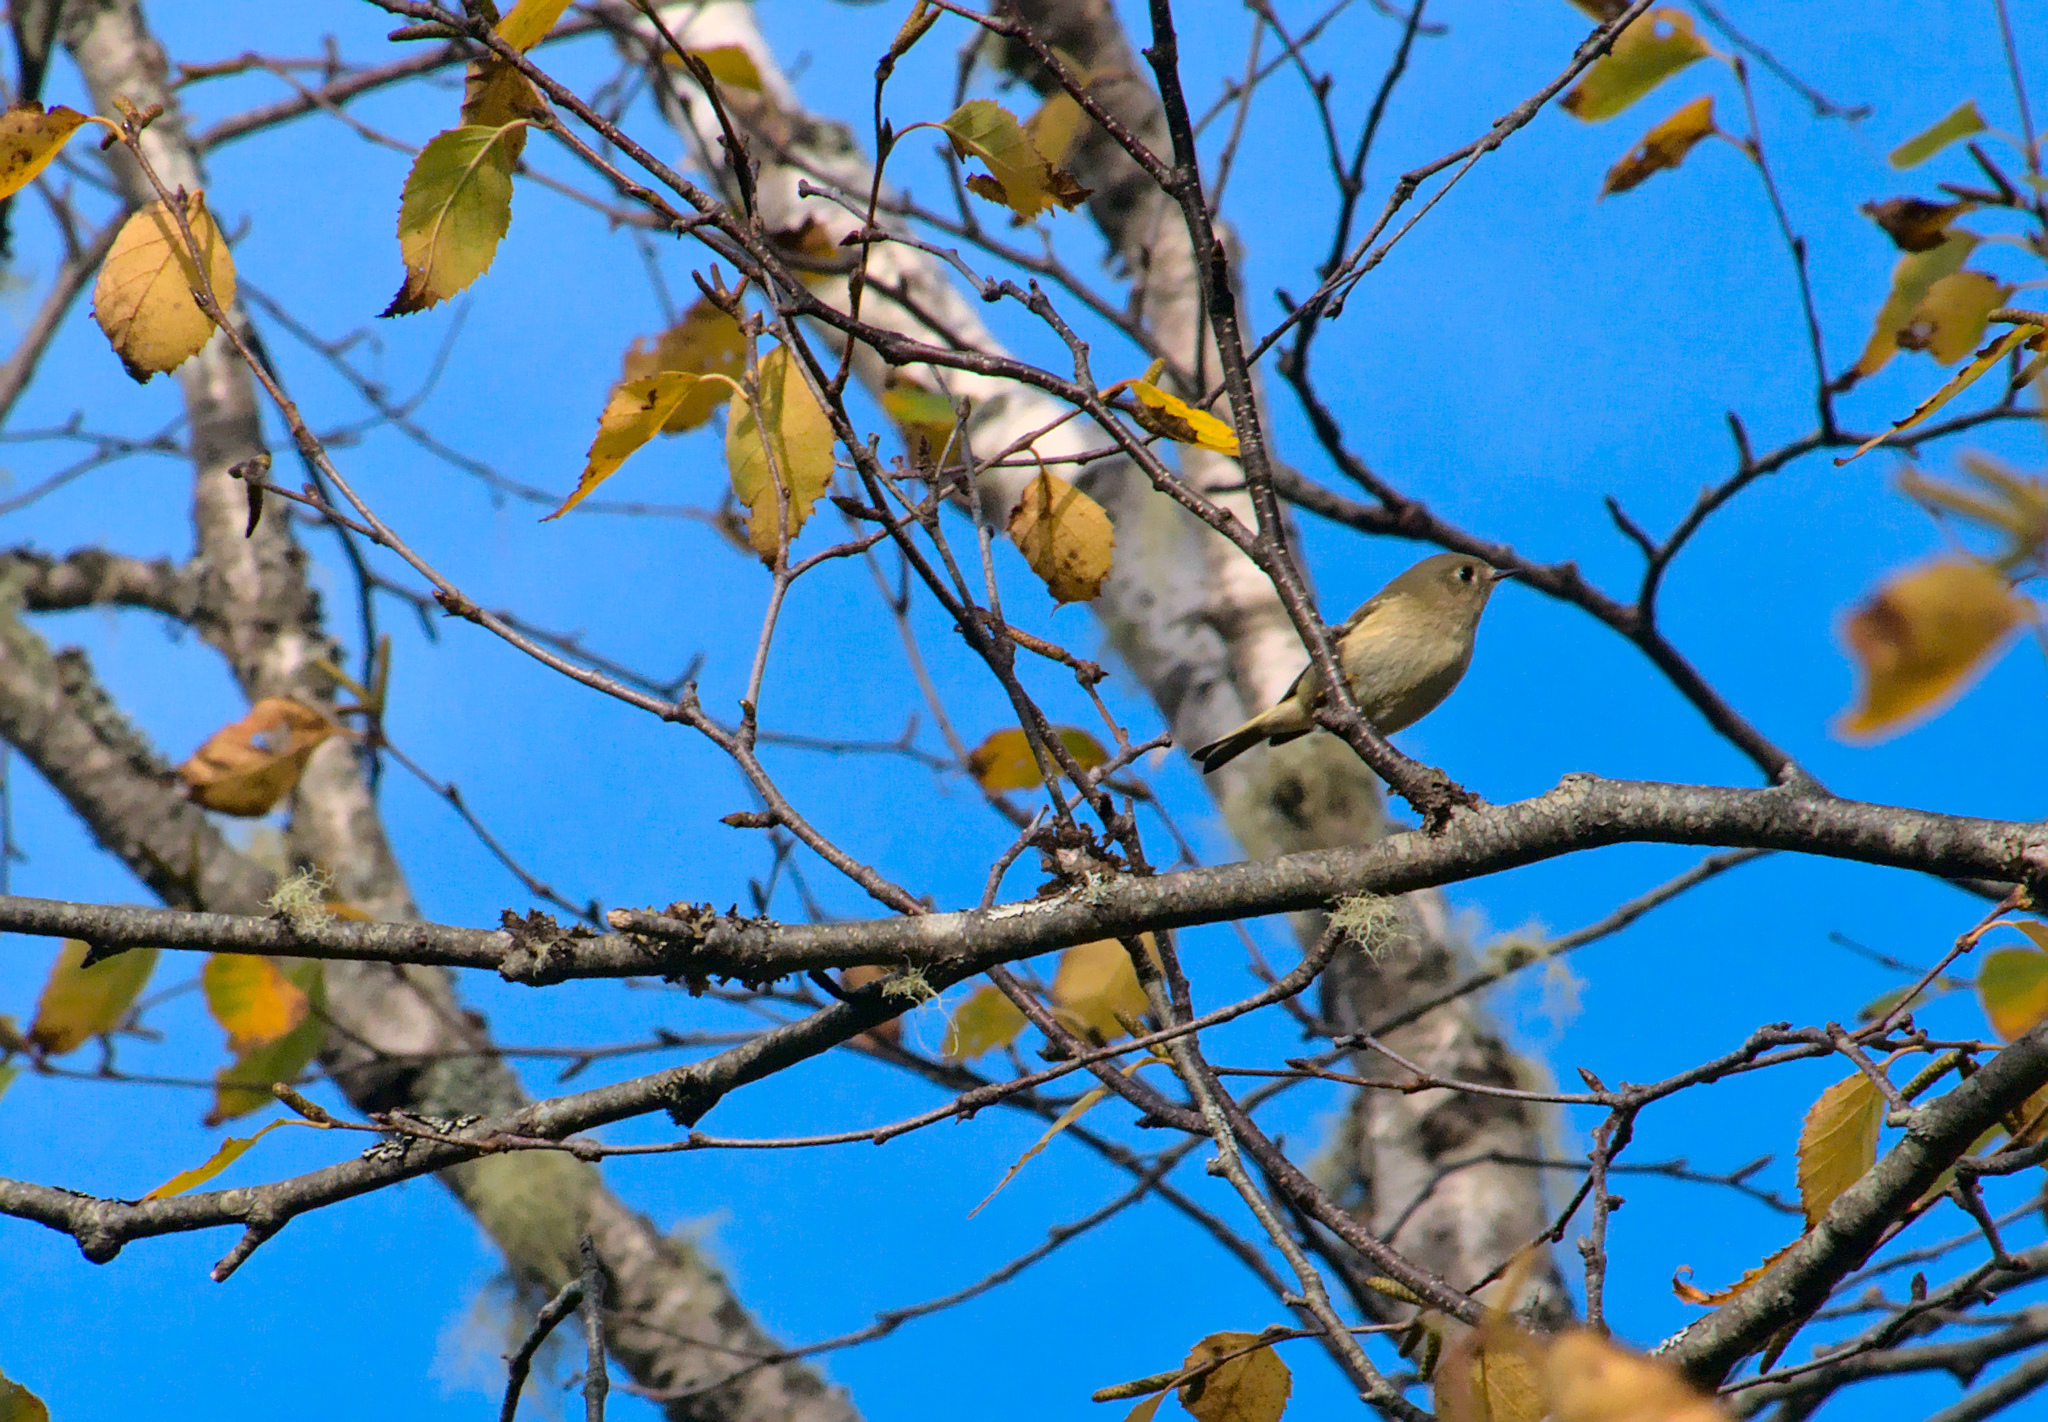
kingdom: Animalia
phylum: Chordata
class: Aves
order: Passeriformes
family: Regulidae
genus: Regulus
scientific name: Regulus calendula
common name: Ruby-crowned kinglet
